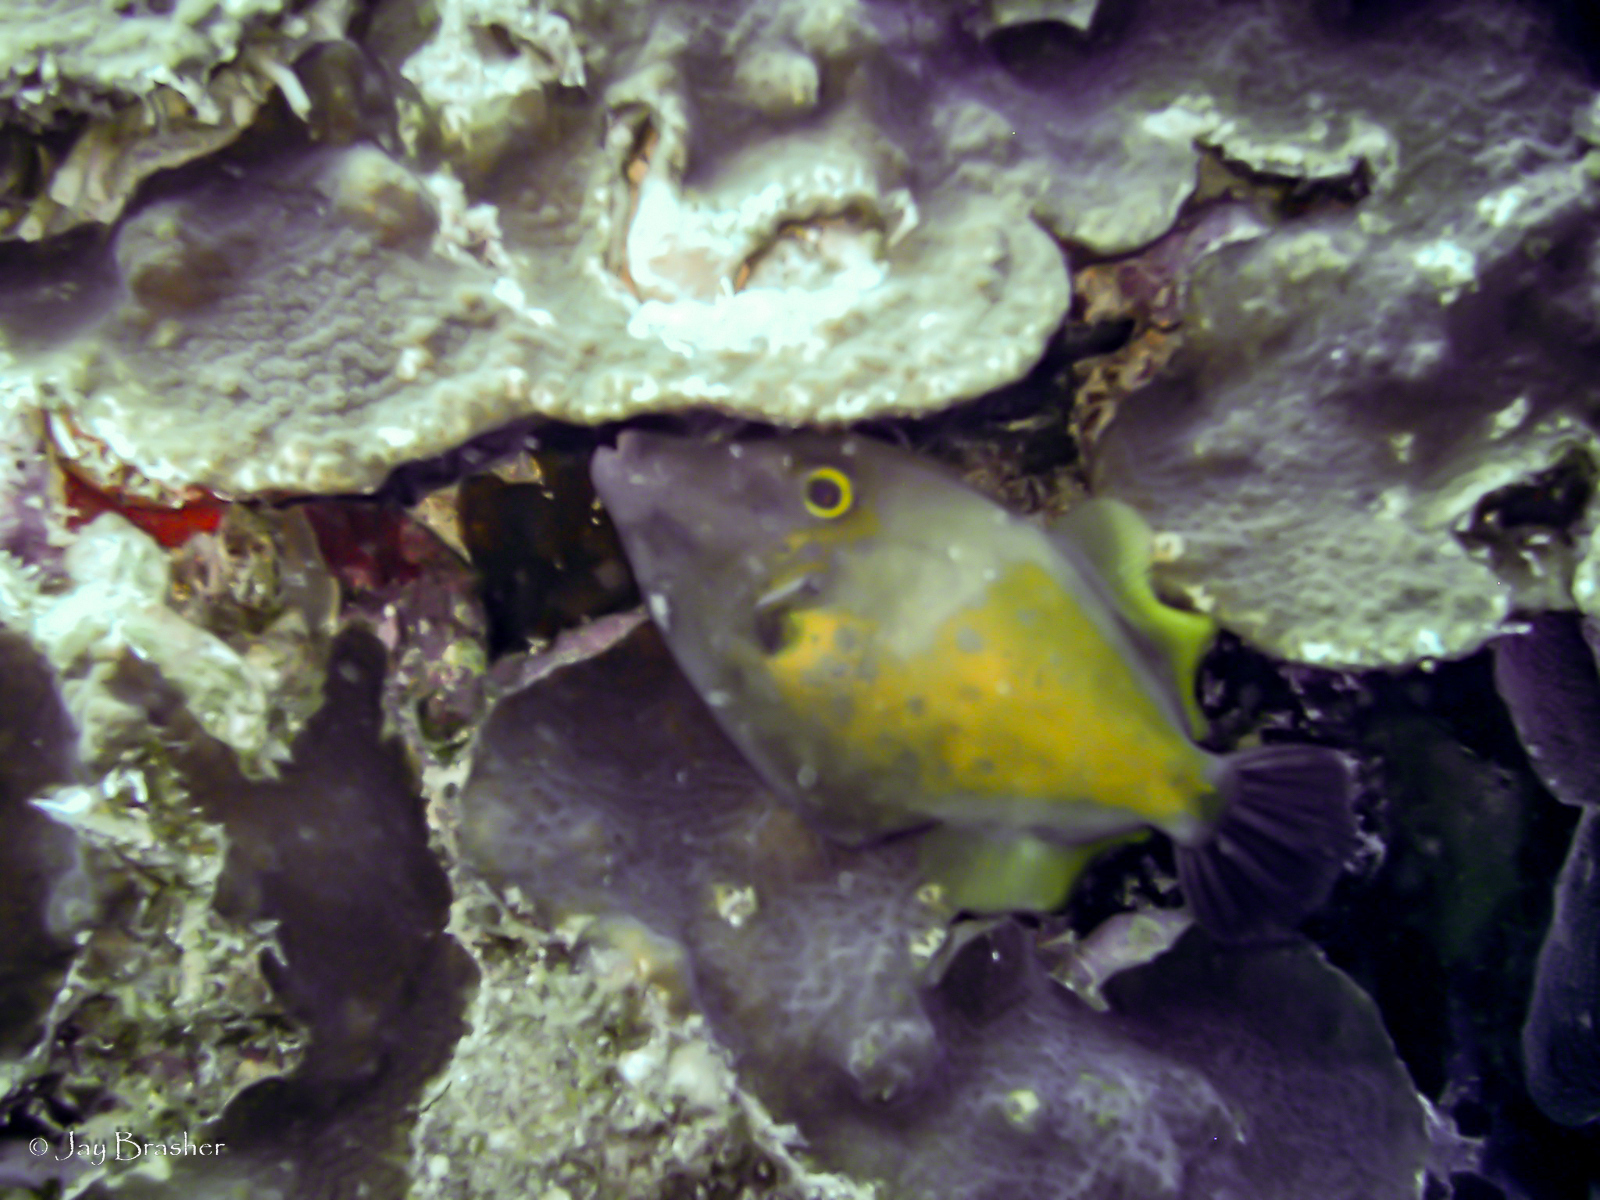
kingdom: Animalia
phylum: Chordata
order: Tetraodontiformes
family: Monacanthidae
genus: Cantherhines
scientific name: Cantherhines macrocerus
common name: Whitespotted filefish
